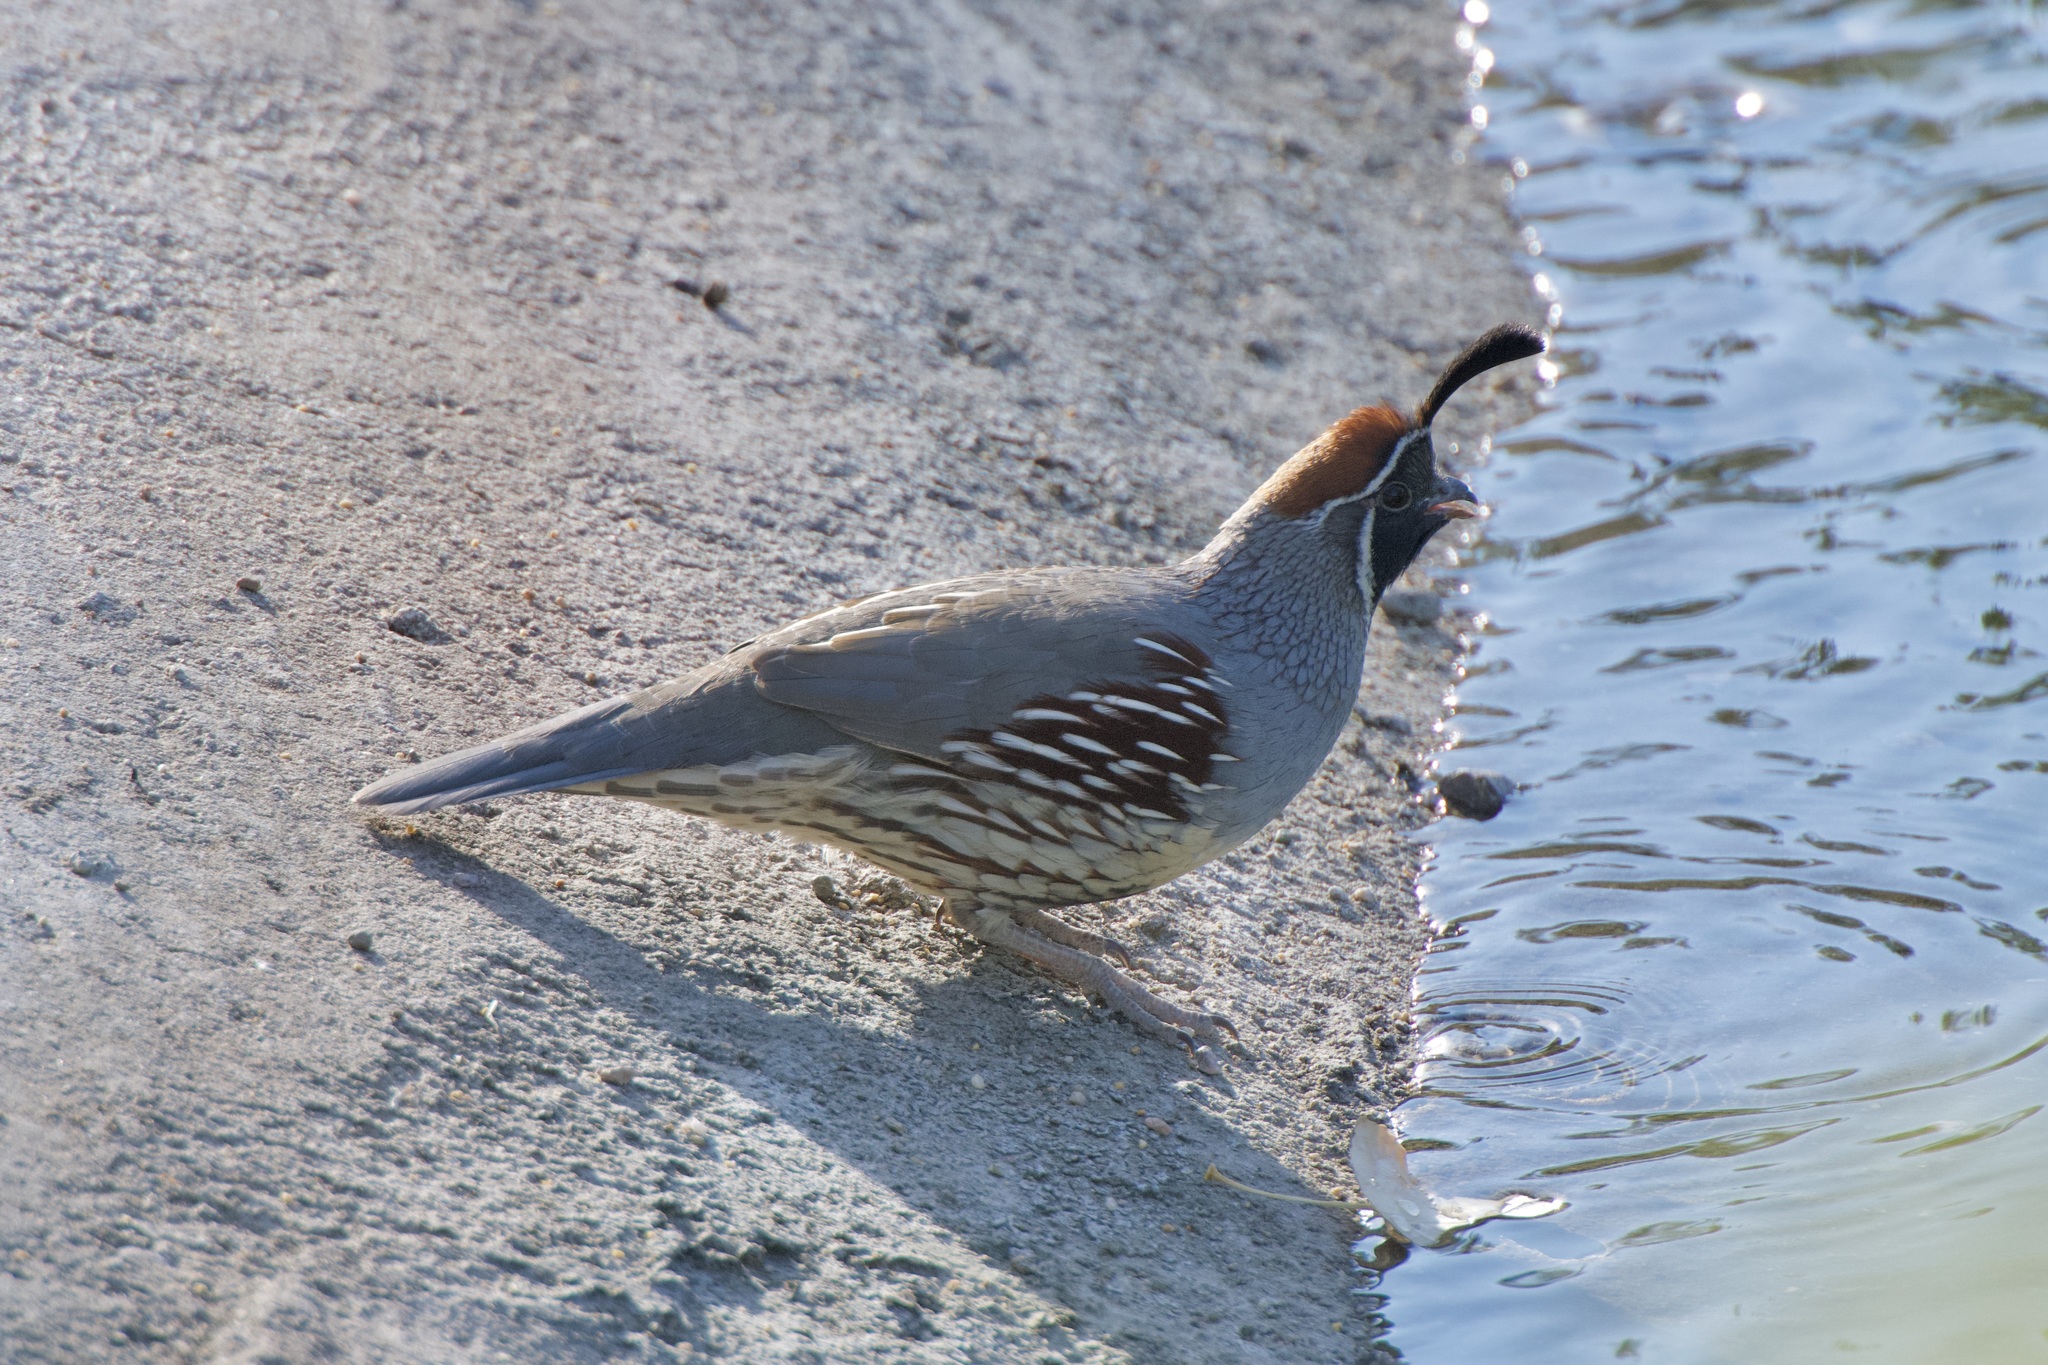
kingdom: Animalia
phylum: Chordata
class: Aves
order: Galliformes
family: Odontophoridae
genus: Callipepla
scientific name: Callipepla gambelii
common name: Gambel's quail
